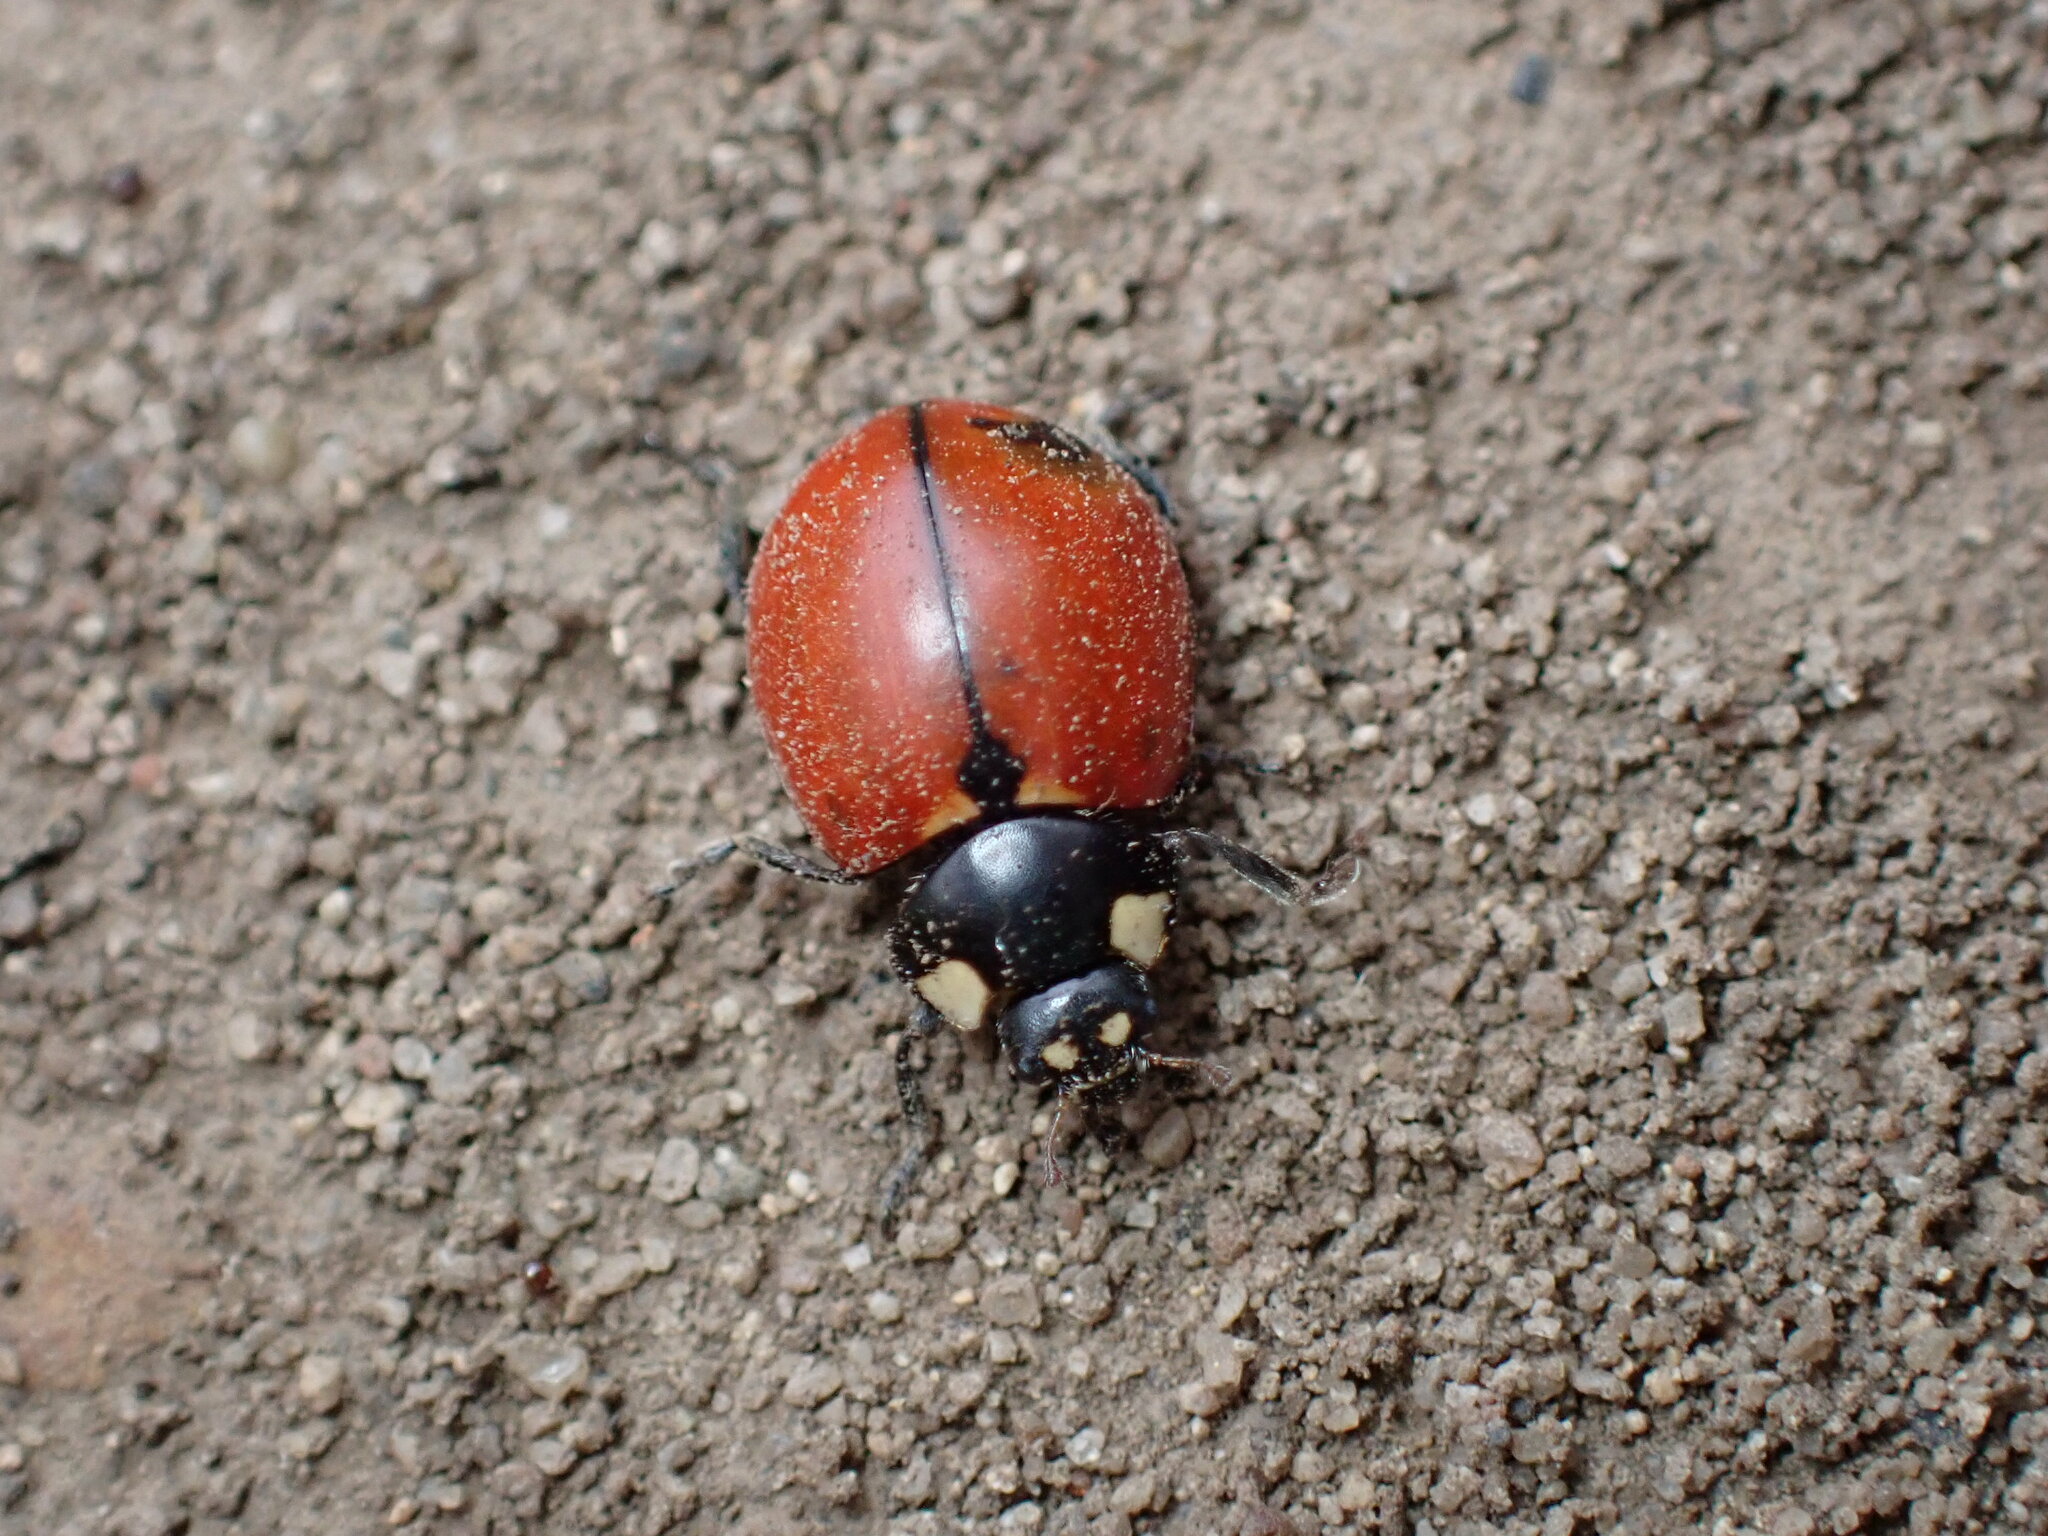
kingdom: Animalia
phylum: Arthropoda
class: Insecta
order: Coleoptera
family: Coccinellidae
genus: Coccinella
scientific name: Coccinella californica
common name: Lady beetle
